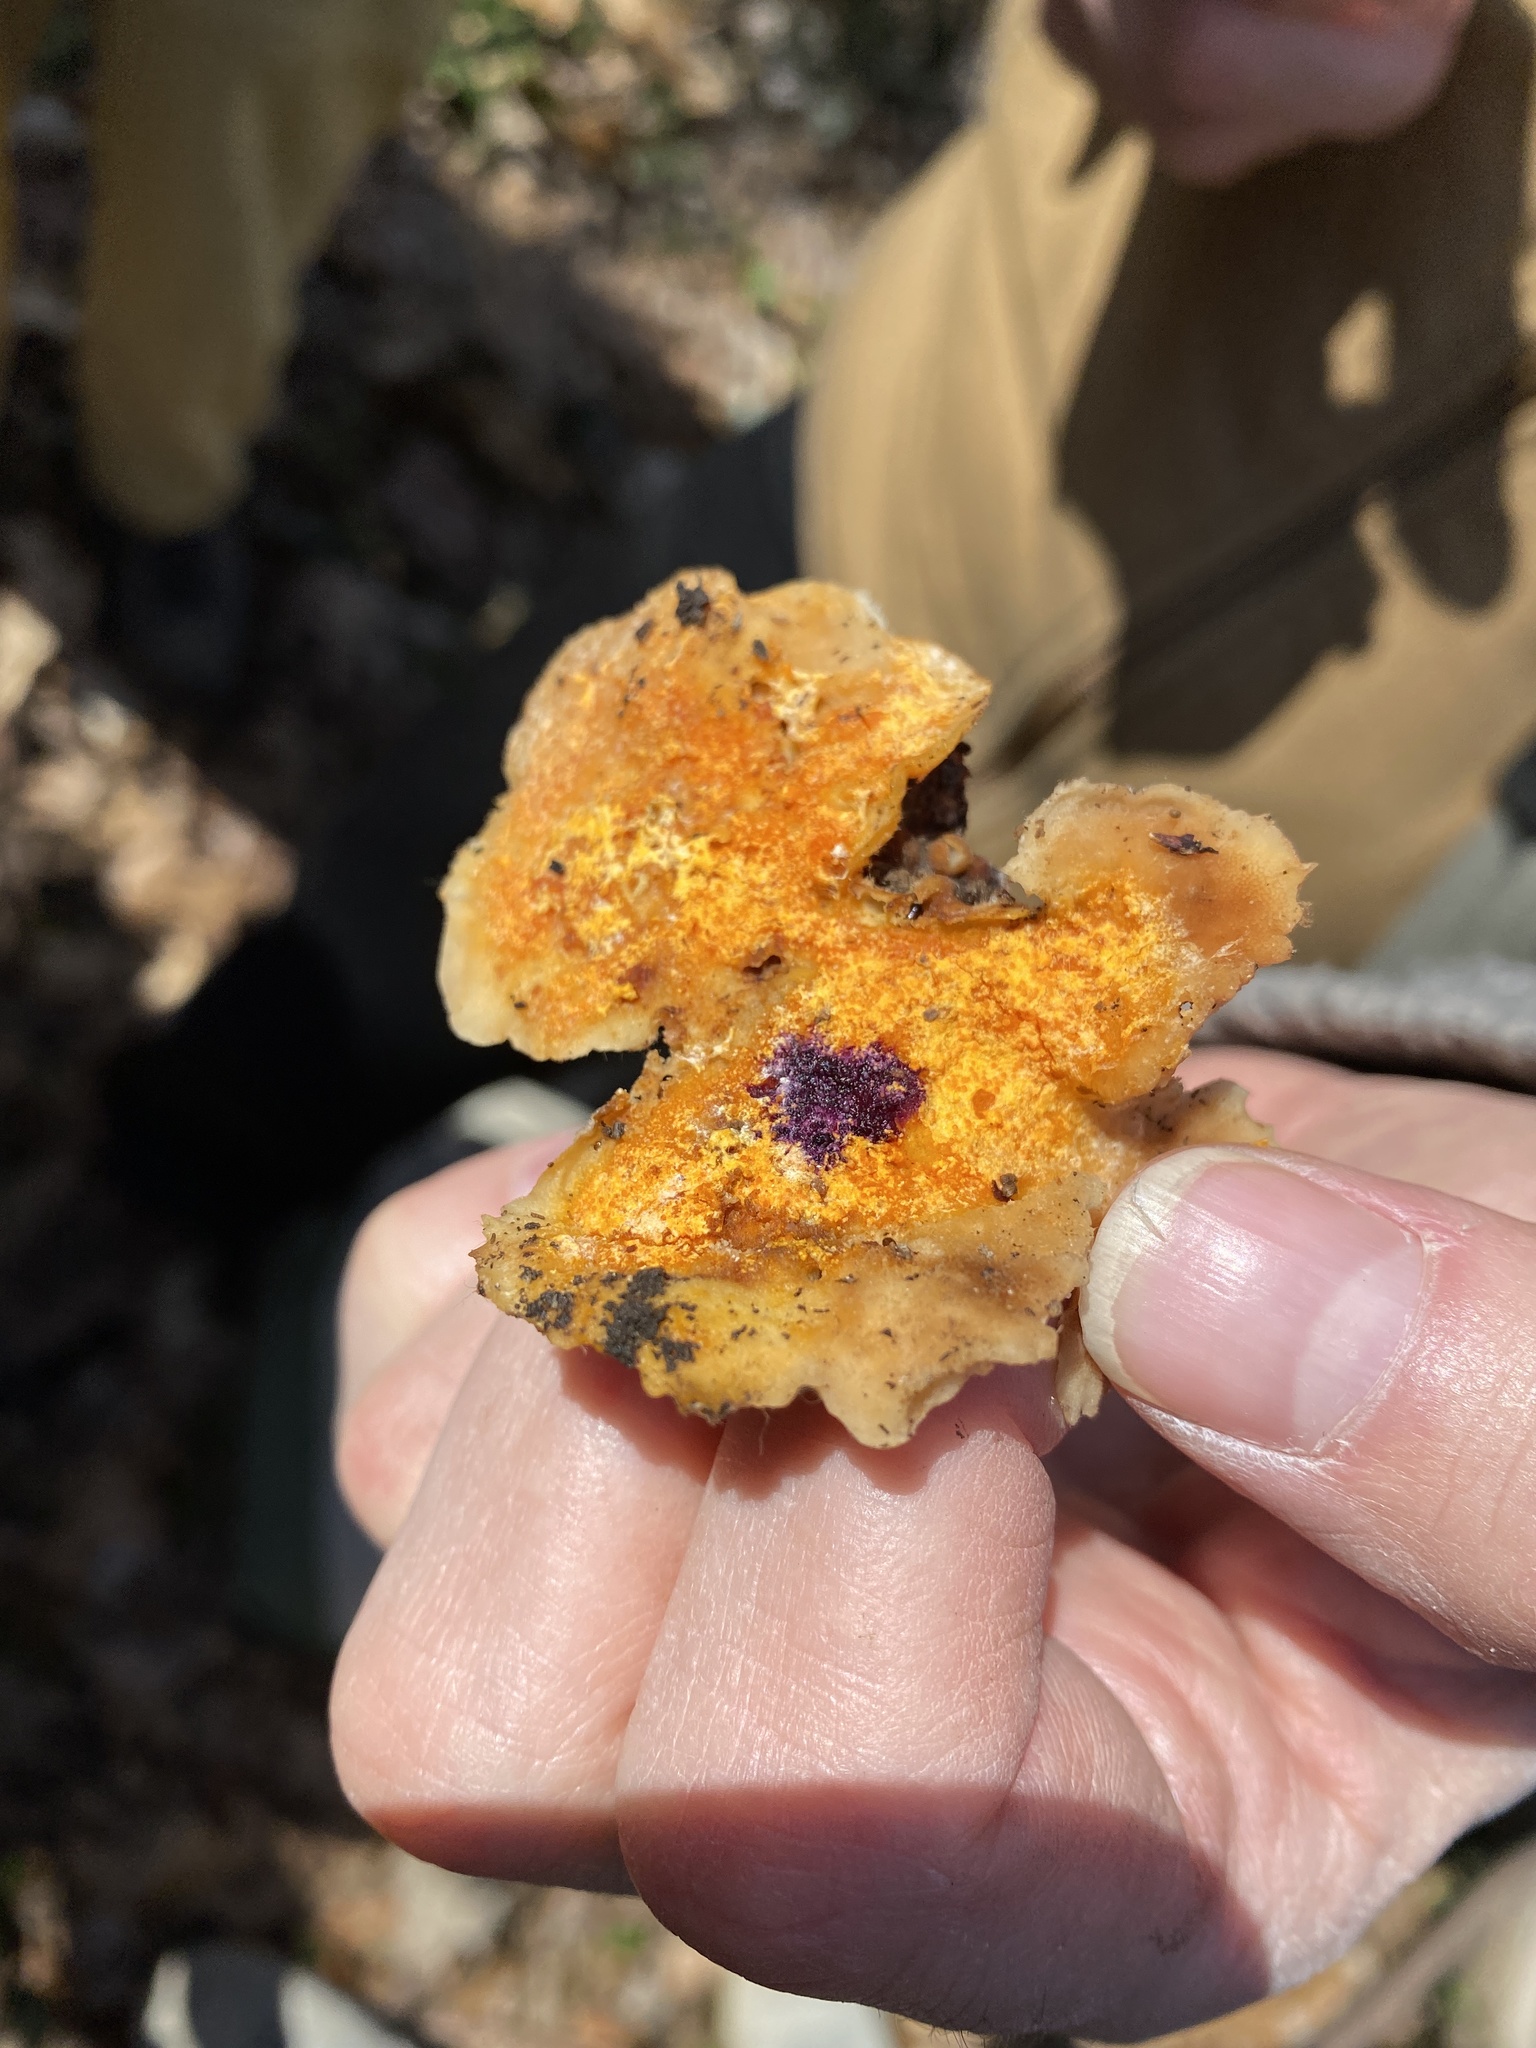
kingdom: Fungi
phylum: Ascomycota
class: Sordariomycetes
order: Hypocreales
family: Hypocreaceae
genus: Hypomyces
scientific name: Hypomyces aurantius
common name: Orange polypore mould
